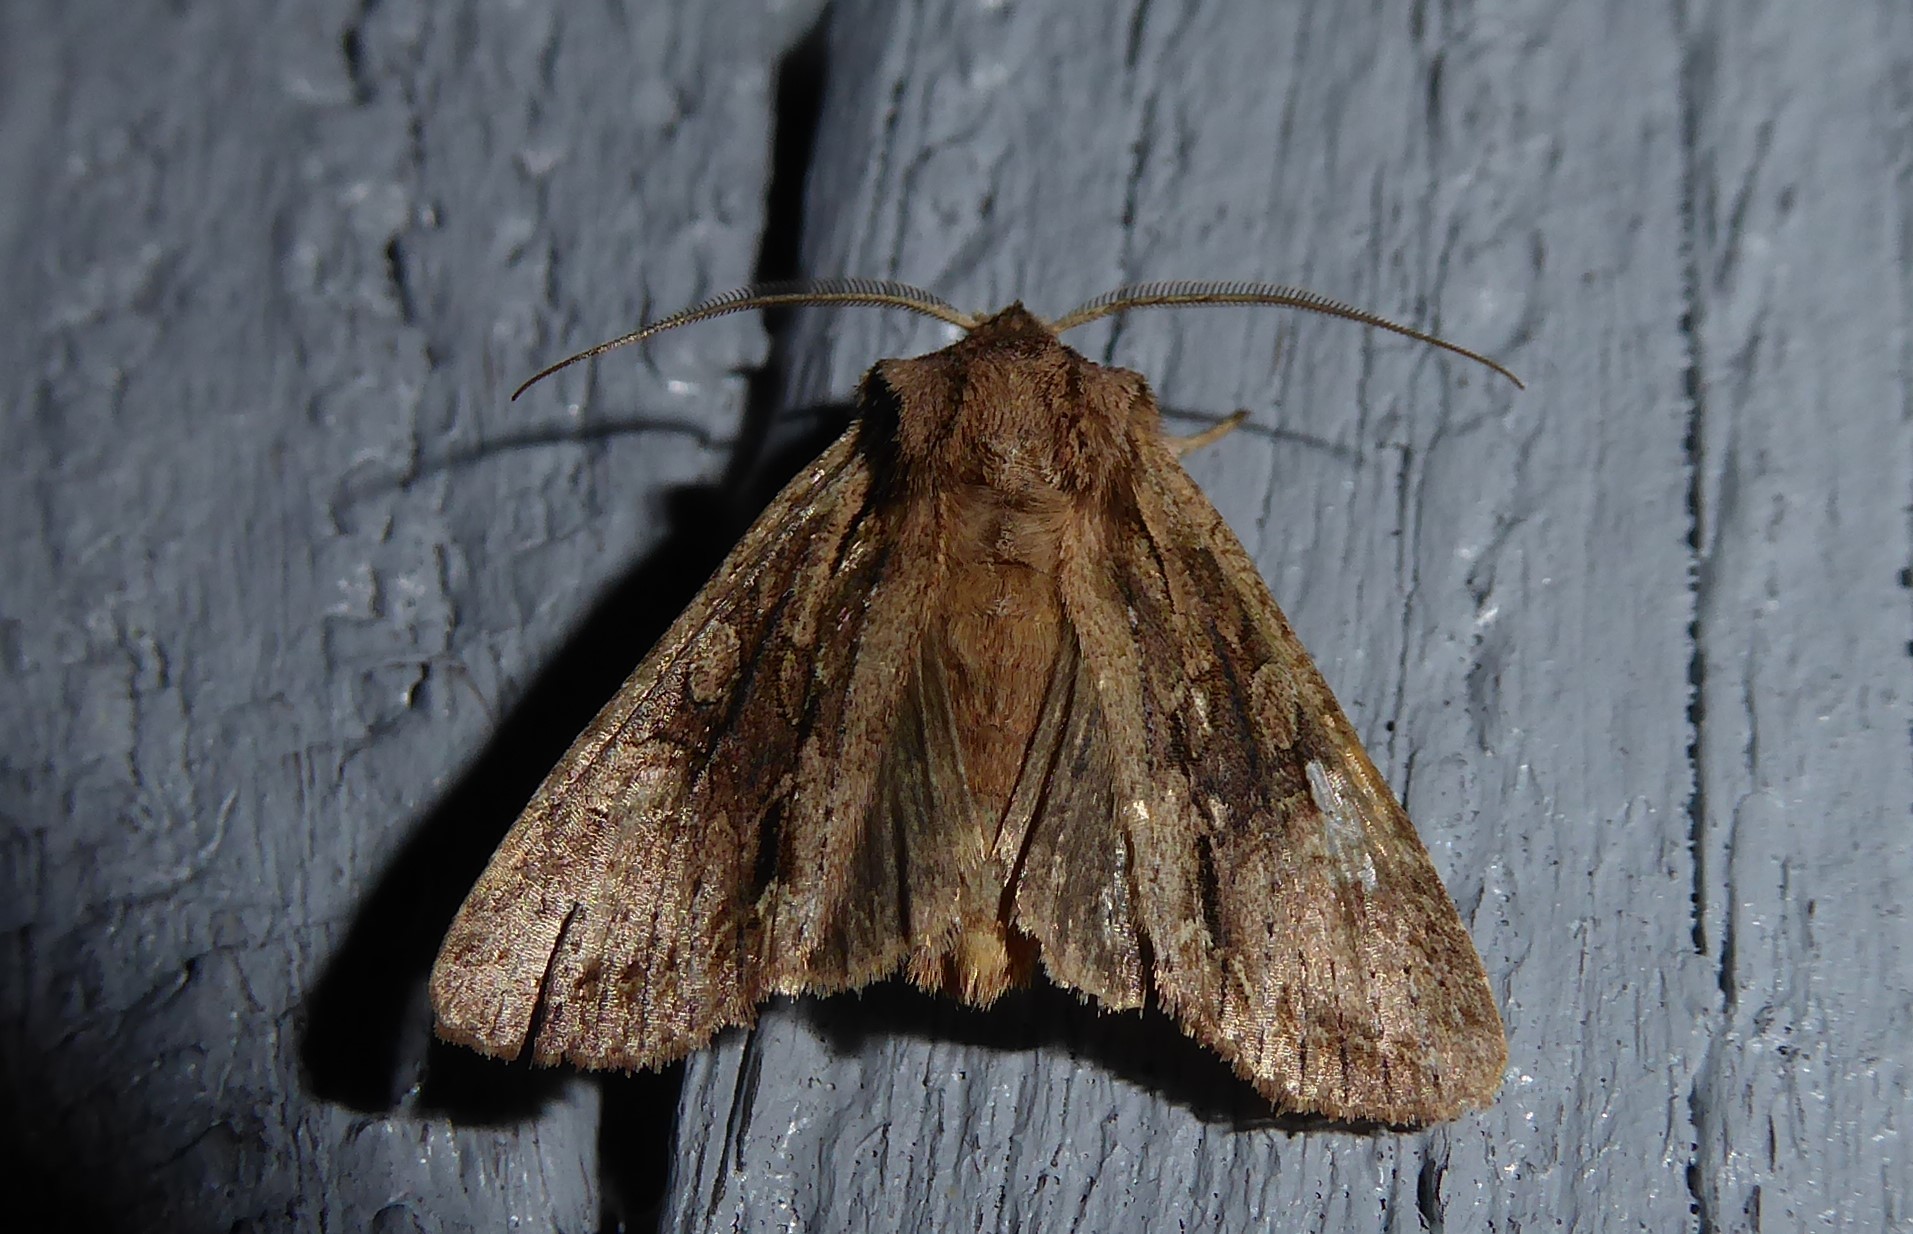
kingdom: Animalia
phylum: Arthropoda
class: Insecta
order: Lepidoptera
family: Noctuidae
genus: Ichneutica
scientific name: Ichneutica mutans
